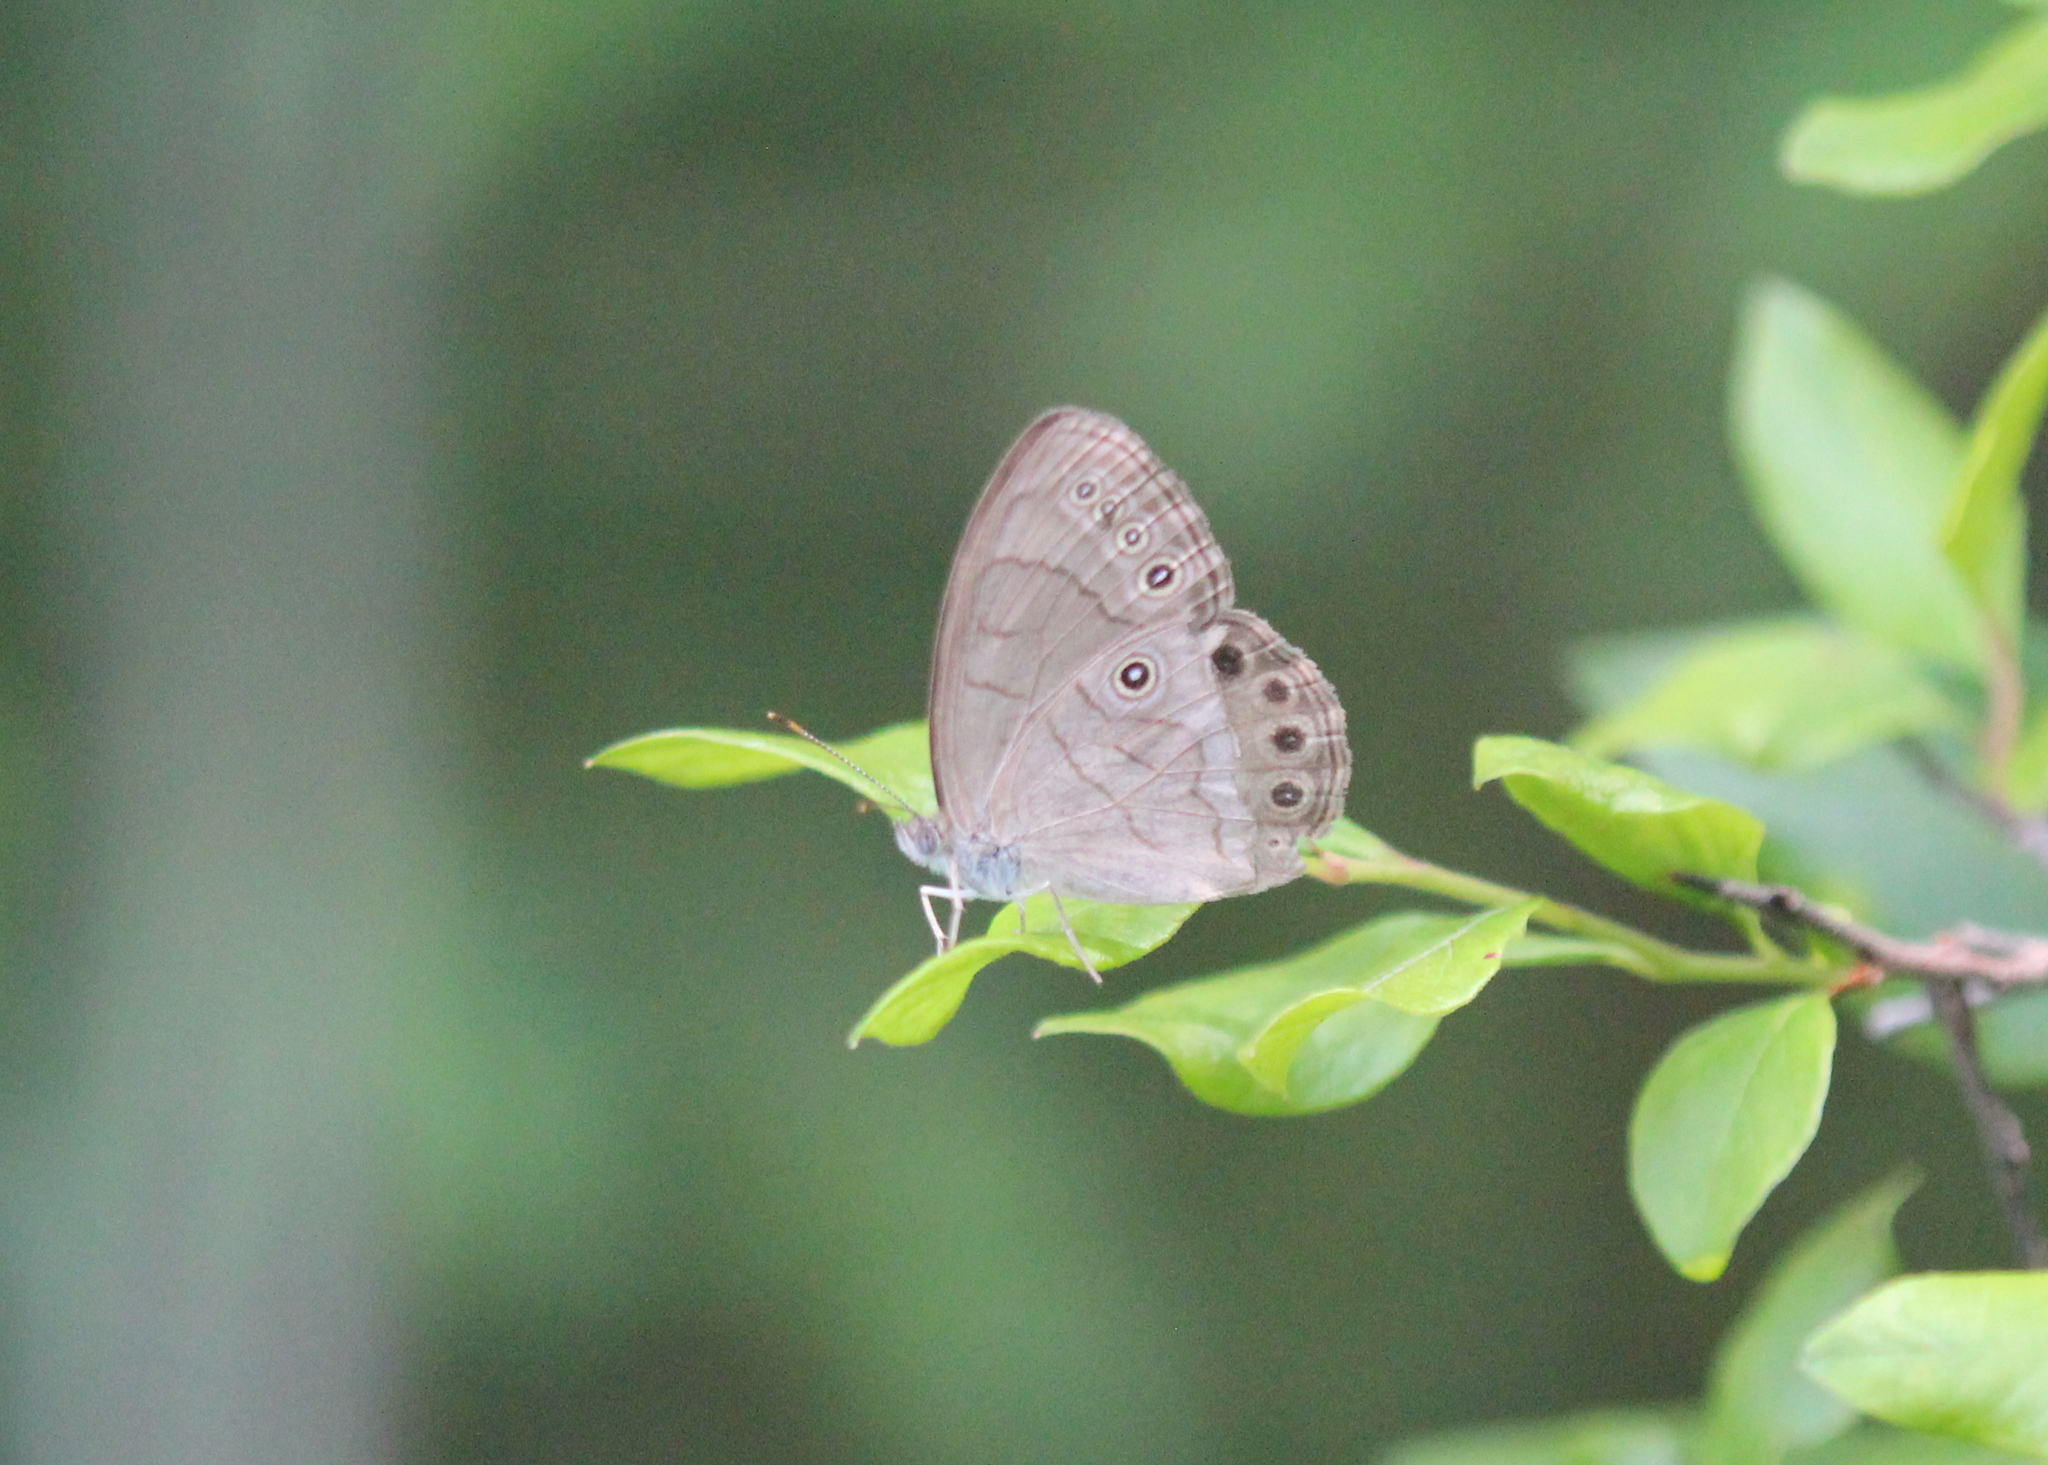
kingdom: Animalia
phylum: Arthropoda
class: Insecta
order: Lepidoptera
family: Nymphalidae
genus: Lethe
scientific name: Lethe eurydice
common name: Eyed brown
